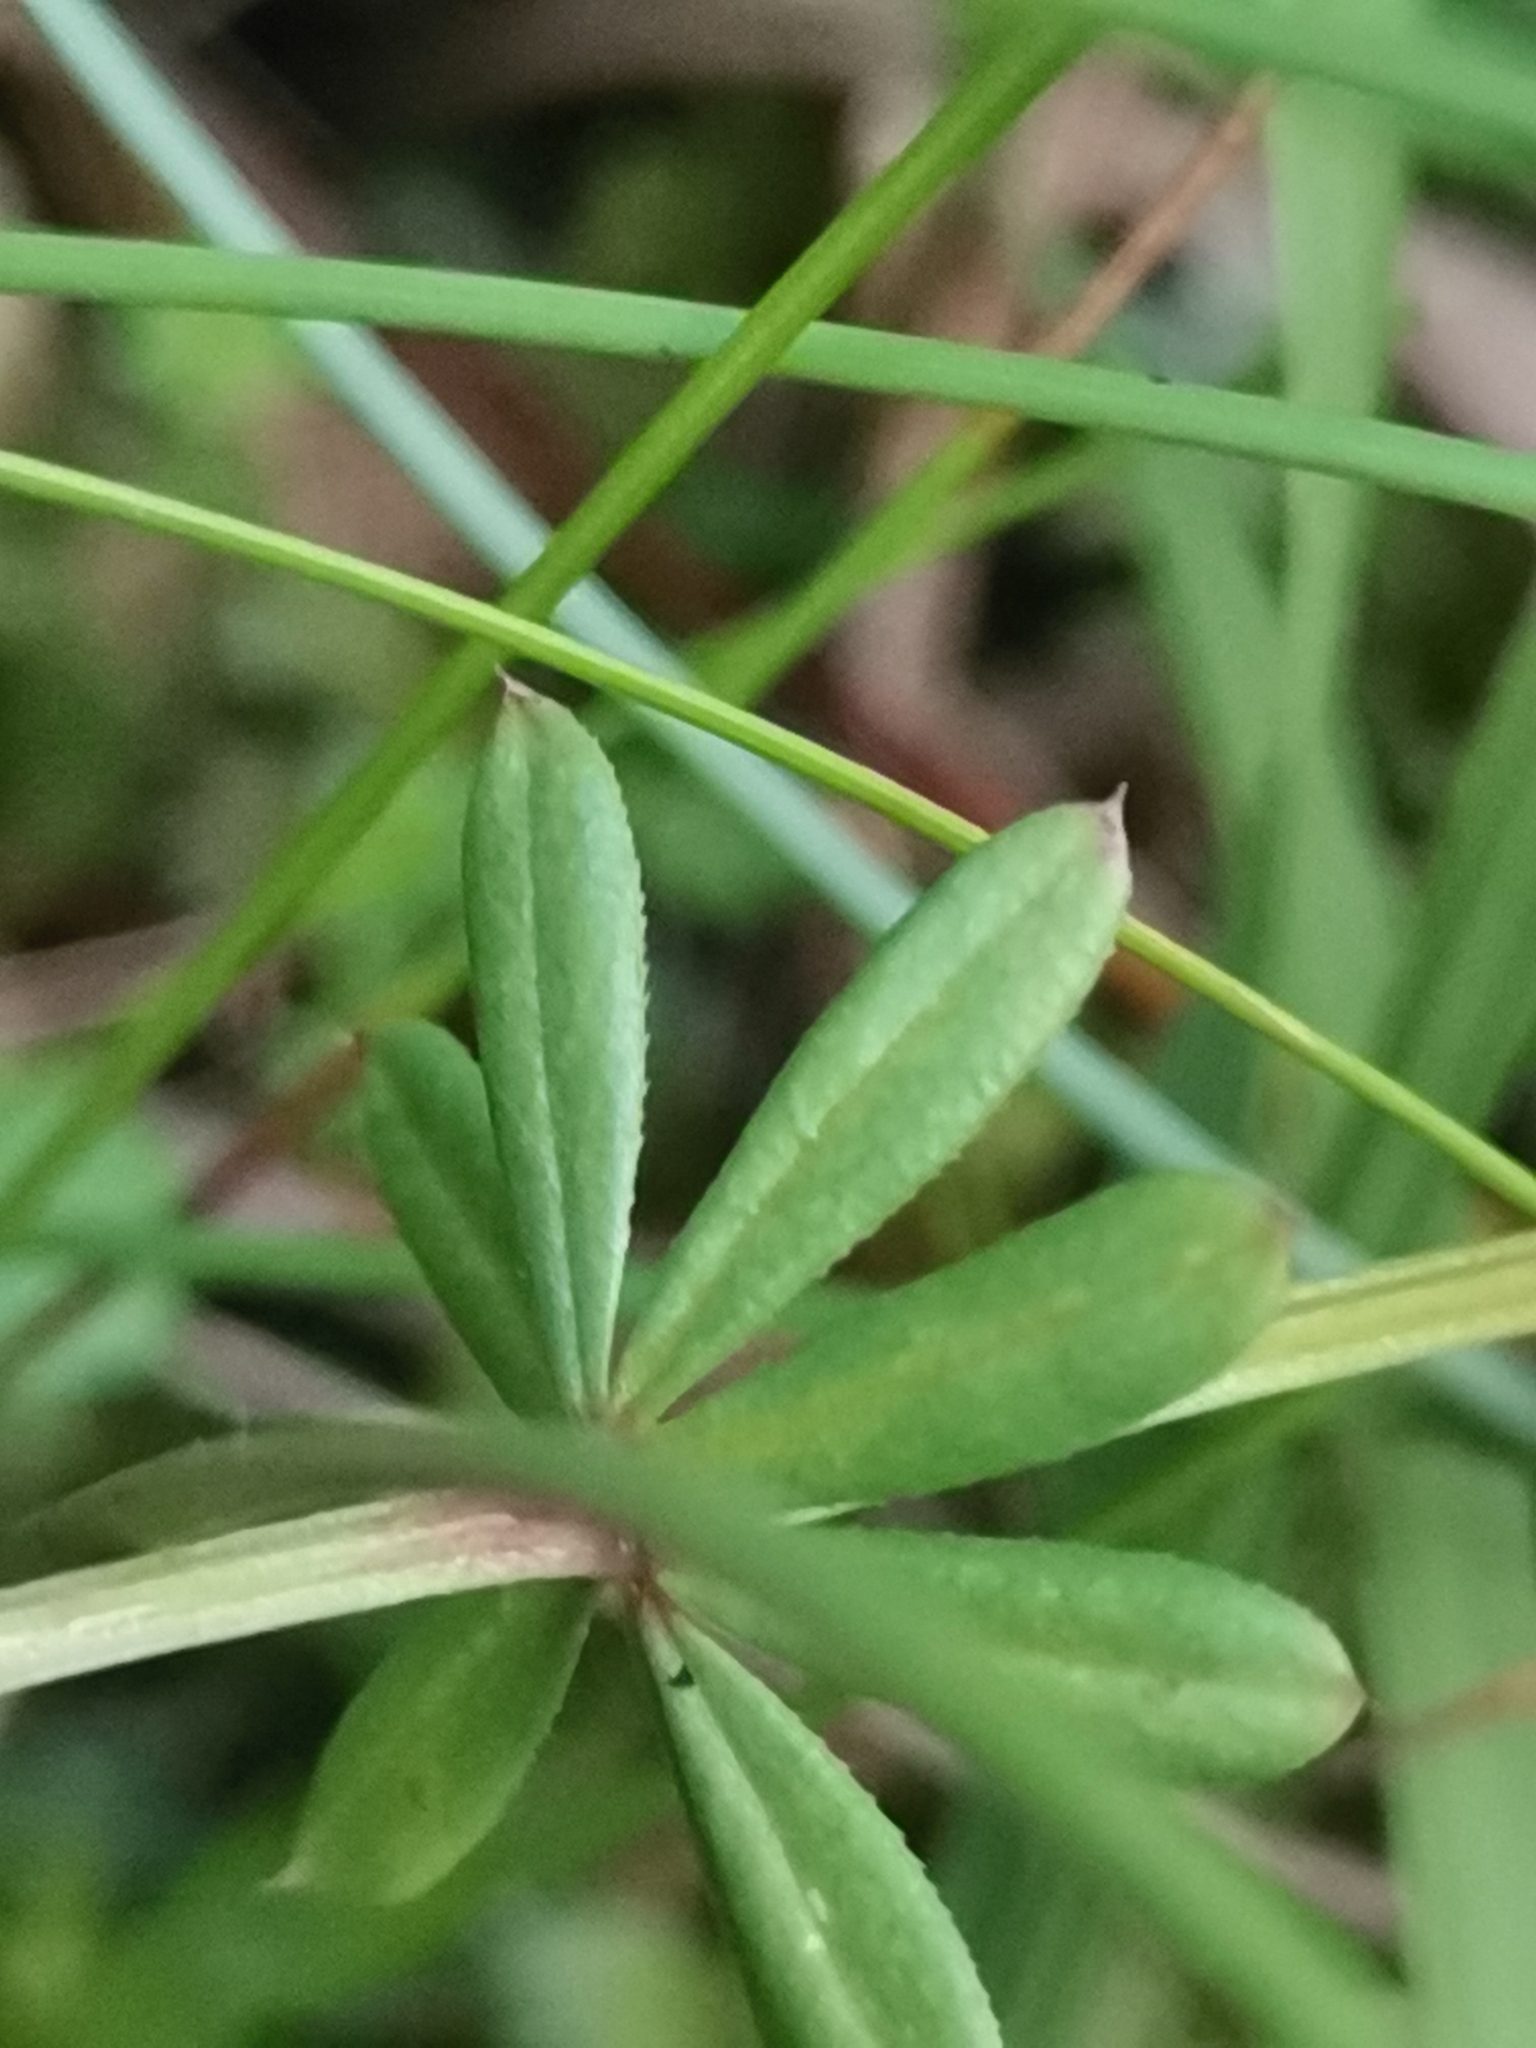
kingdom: Plantae
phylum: Tracheophyta
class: Magnoliopsida
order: Gentianales
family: Rubiaceae
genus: Galium
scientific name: Galium mollugo
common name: Hedge bedstraw
